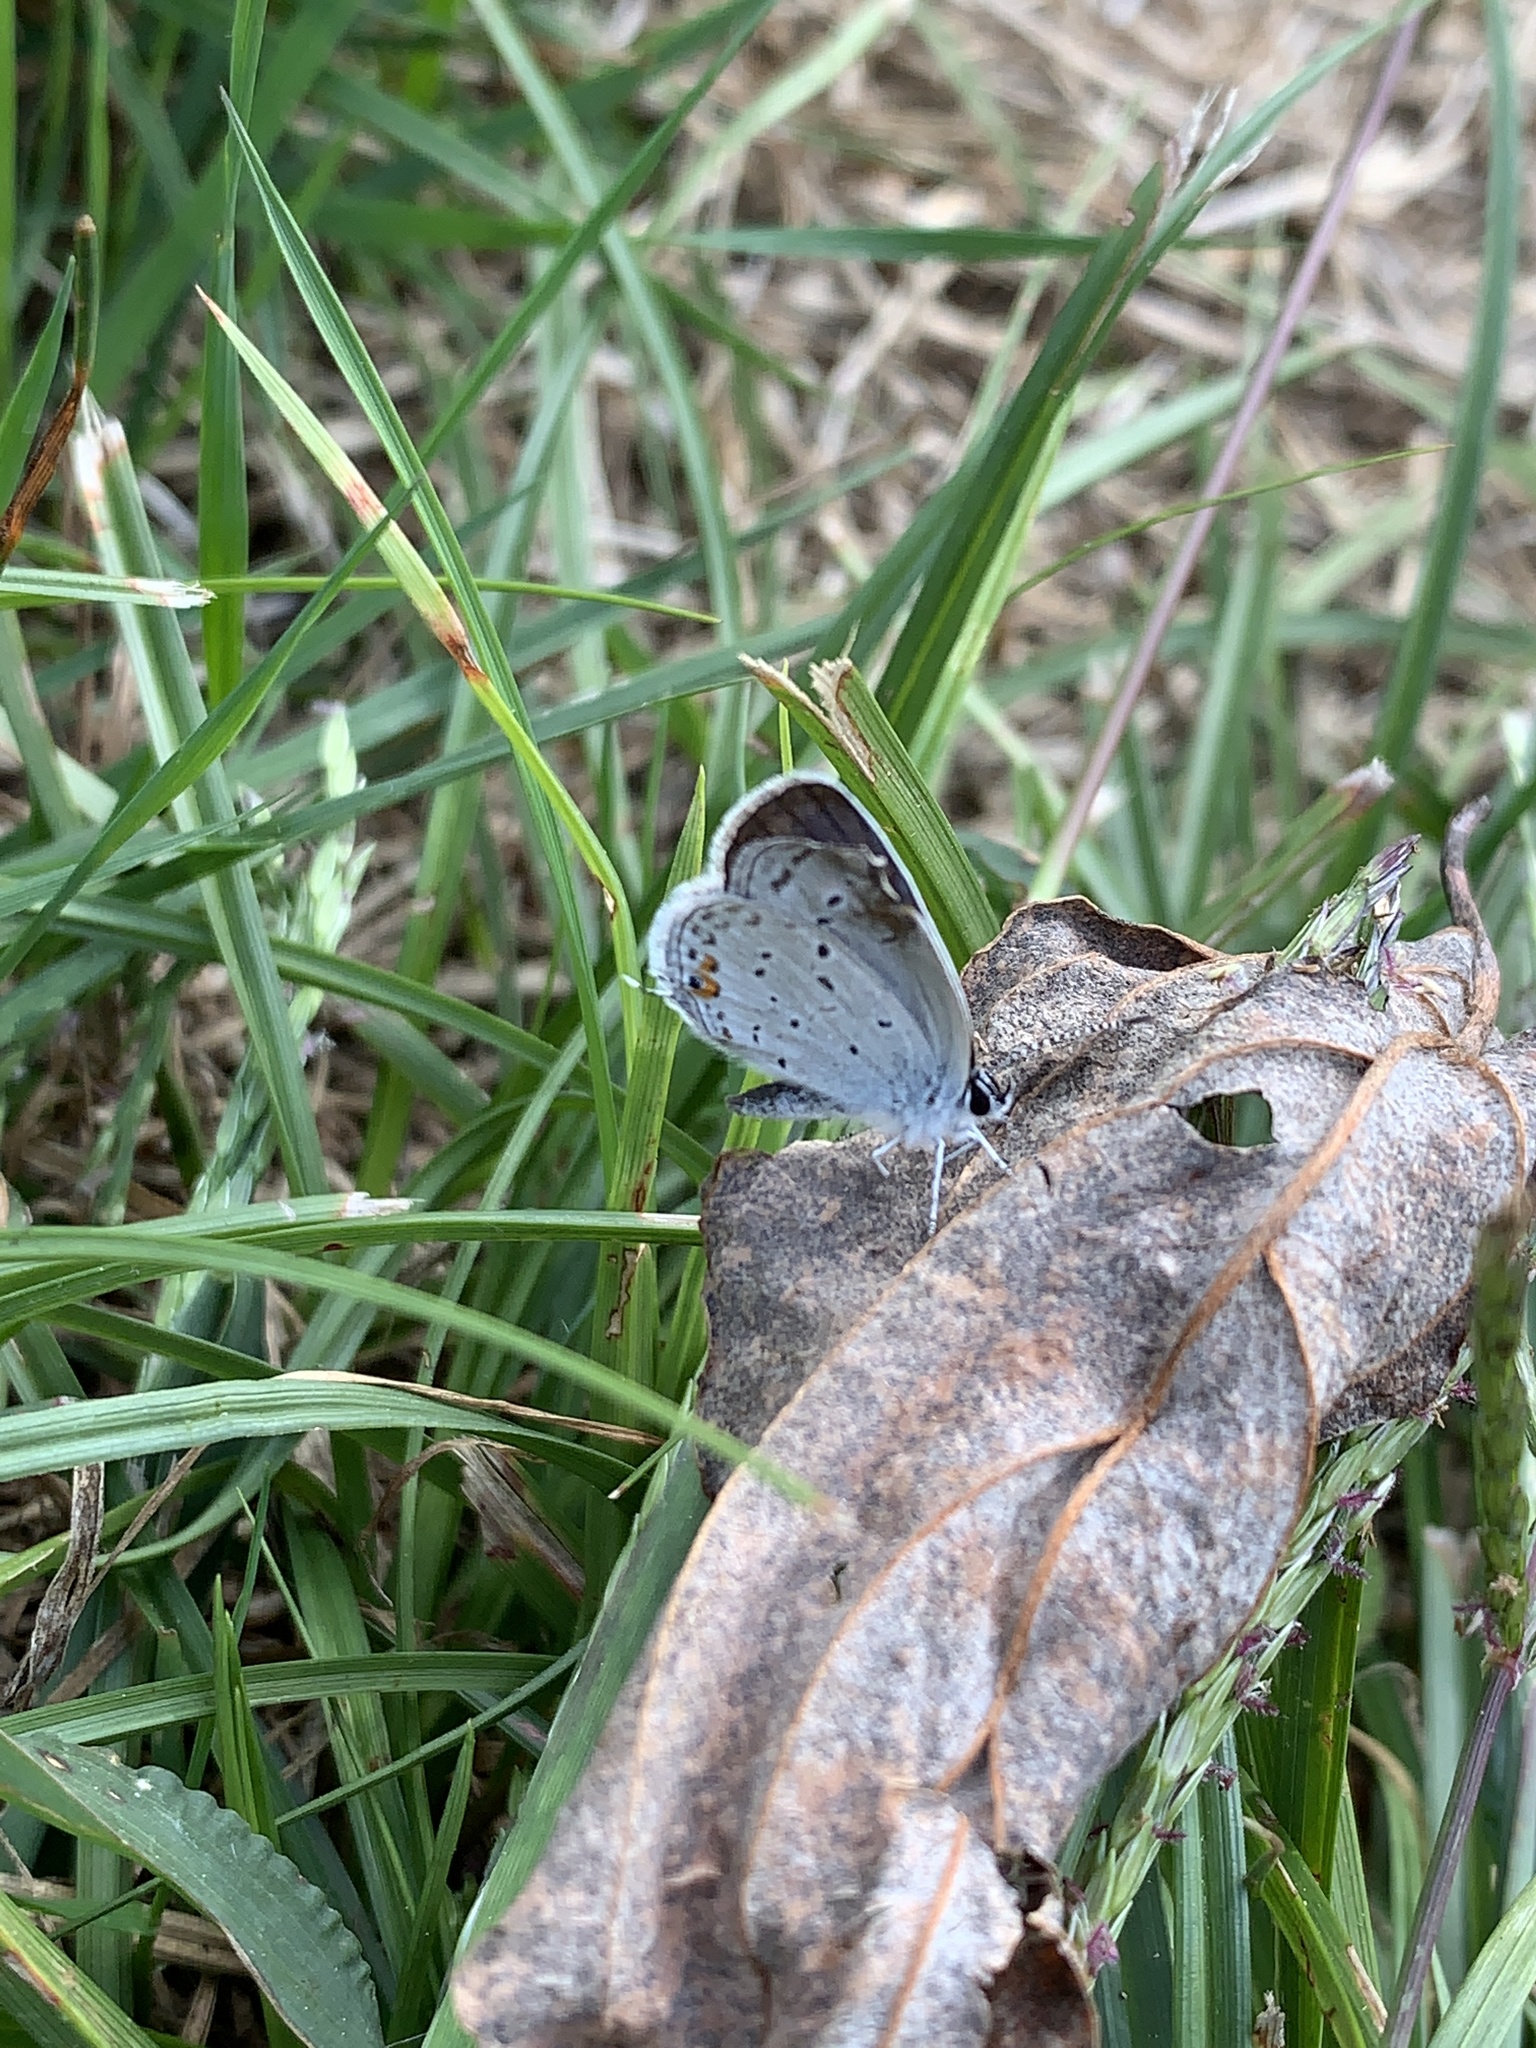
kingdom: Animalia
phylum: Arthropoda
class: Insecta
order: Lepidoptera
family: Lycaenidae
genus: Elkalyce
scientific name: Elkalyce comyntas
